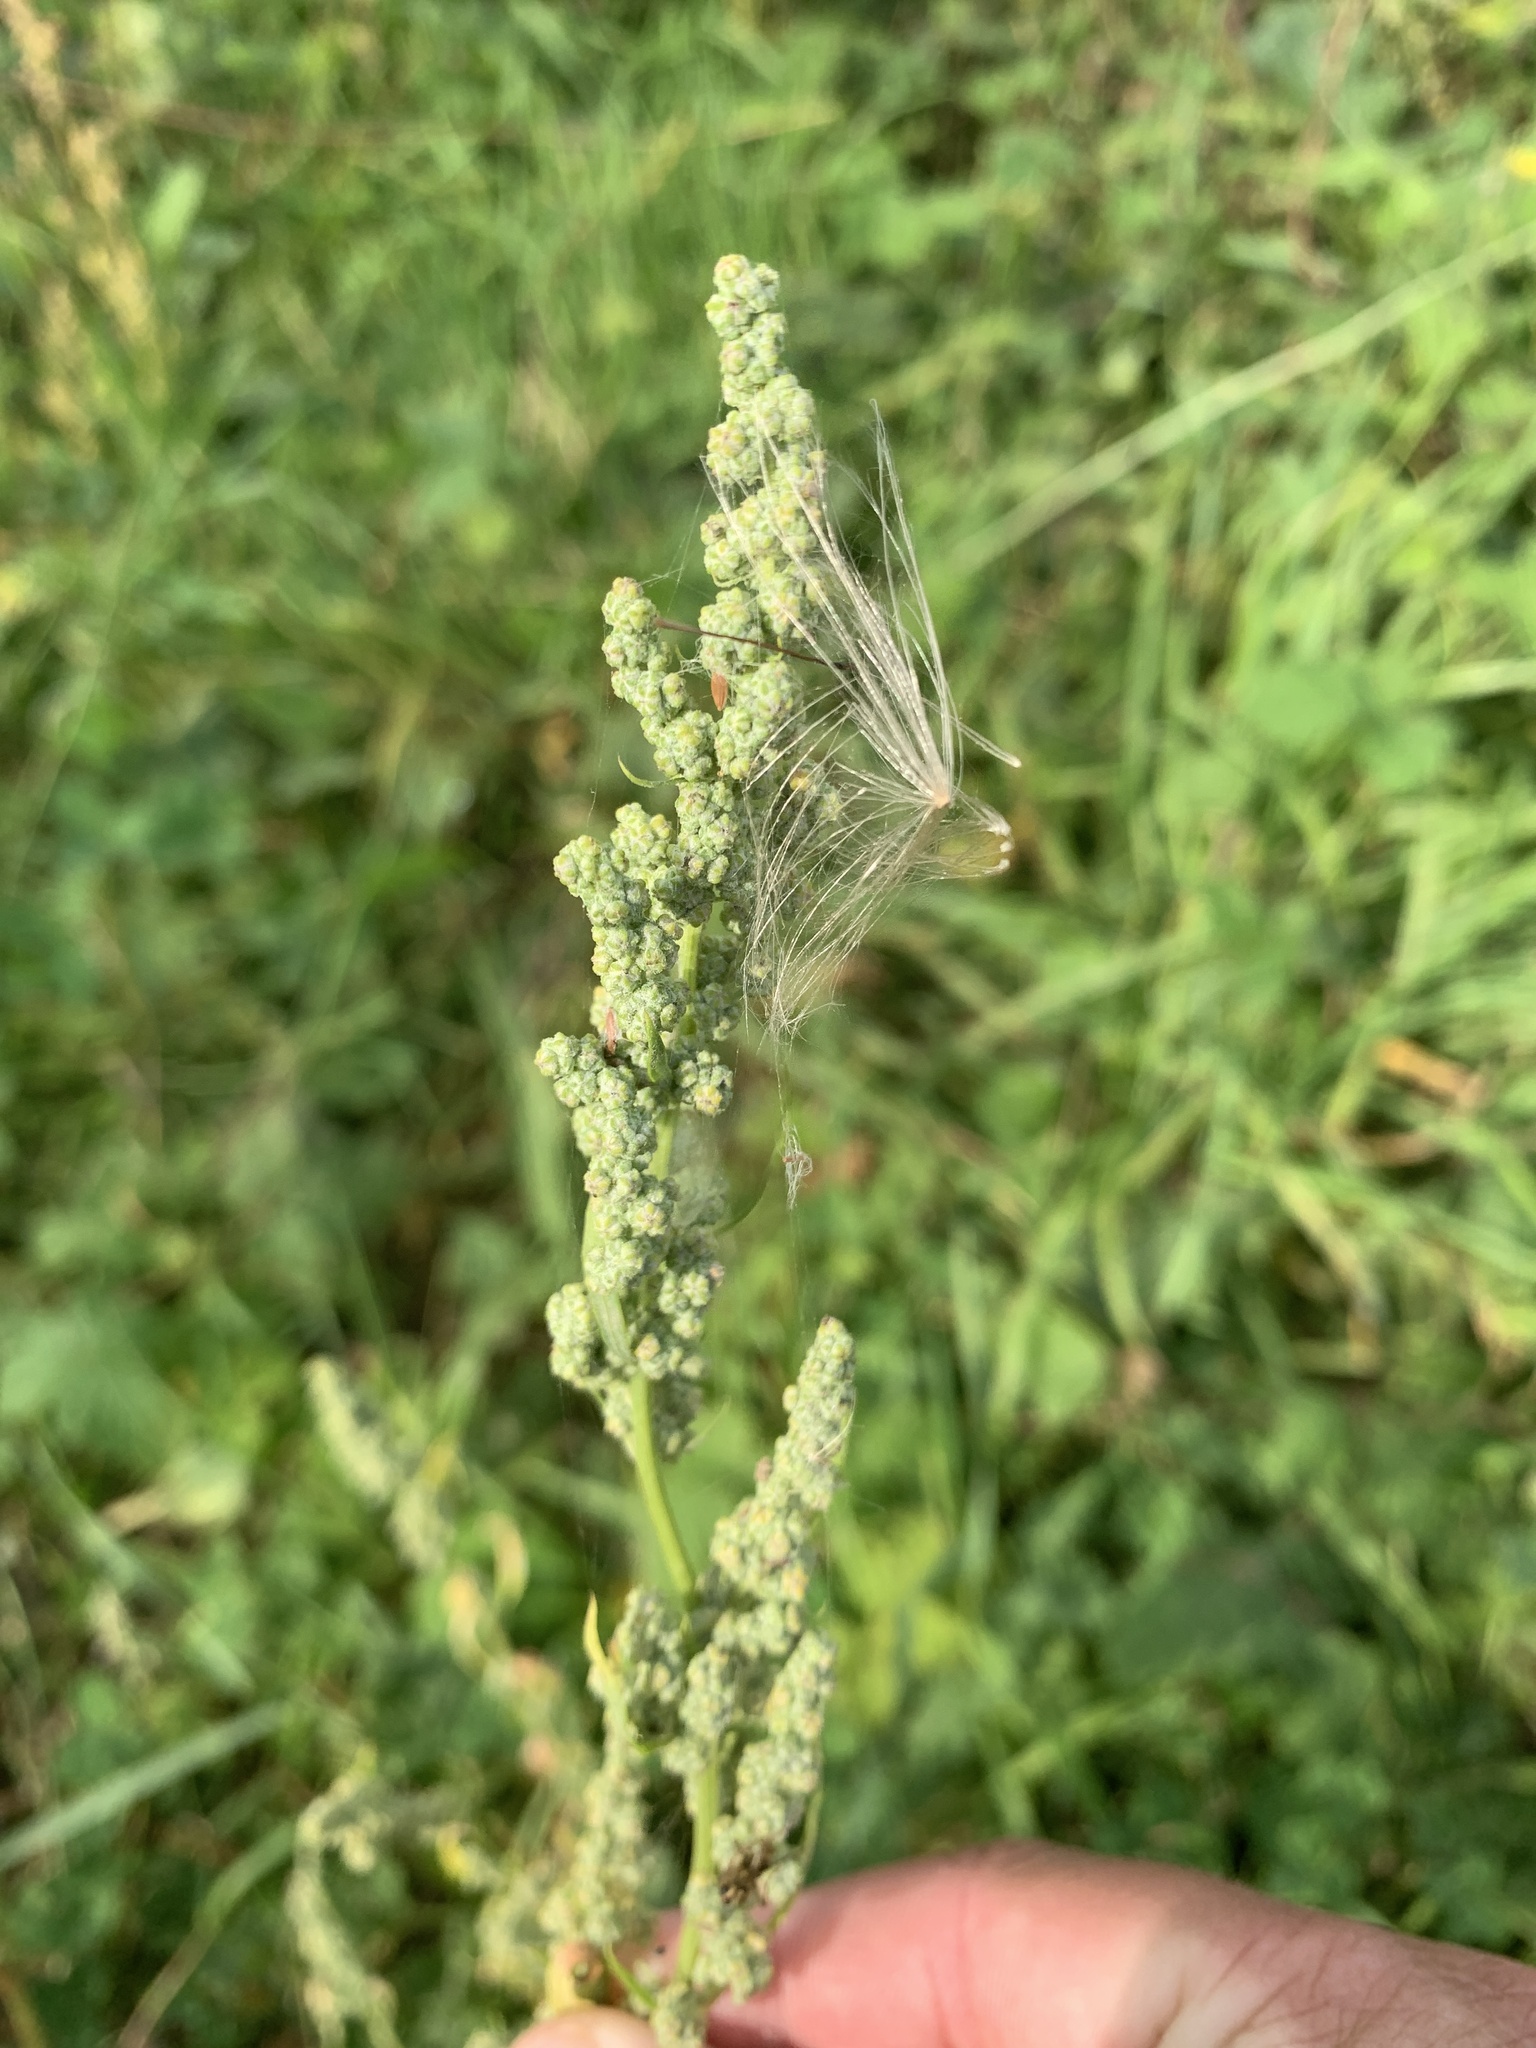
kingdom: Plantae
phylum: Tracheophyta
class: Magnoliopsida
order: Caryophyllales
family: Amaranthaceae
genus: Chenopodium
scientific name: Chenopodium album
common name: Fat-hen
